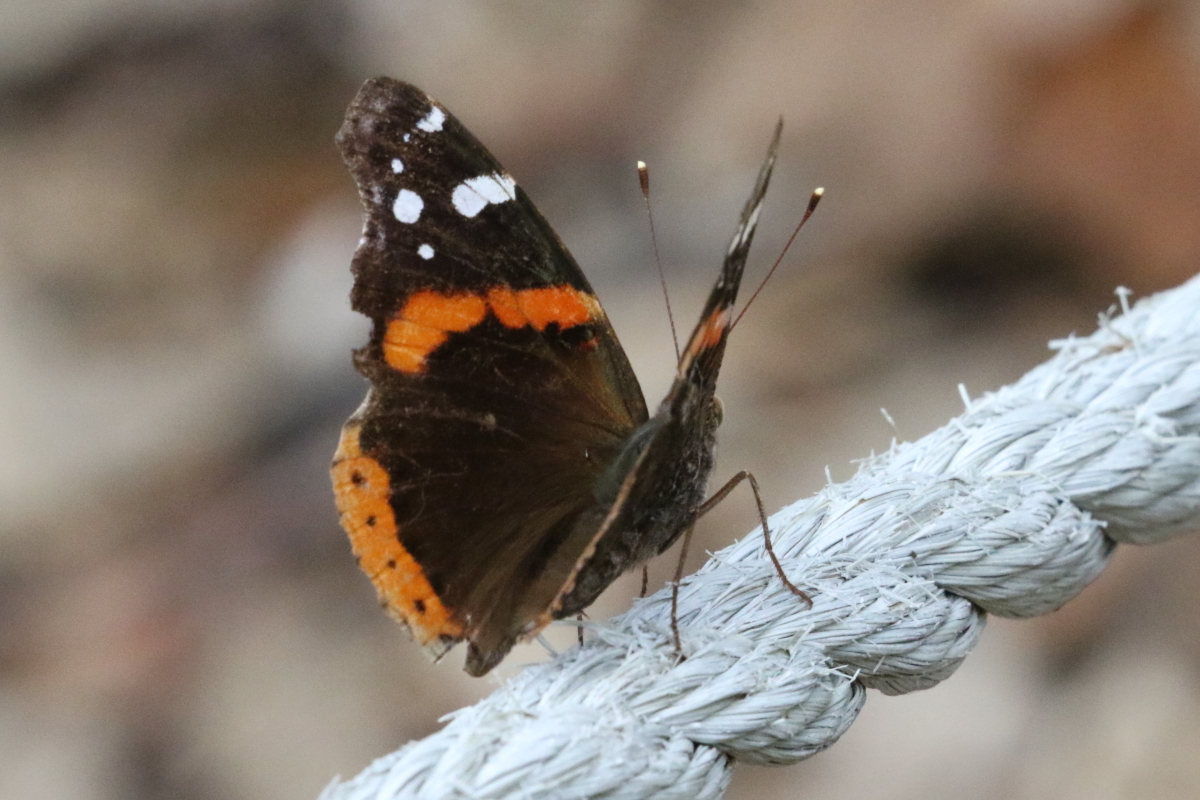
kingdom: Animalia
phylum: Arthropoda
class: Insecta
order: Lepidoptera
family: Nymphalidae
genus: Vanessa
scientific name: Vanessa atalanta
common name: Red admiral
